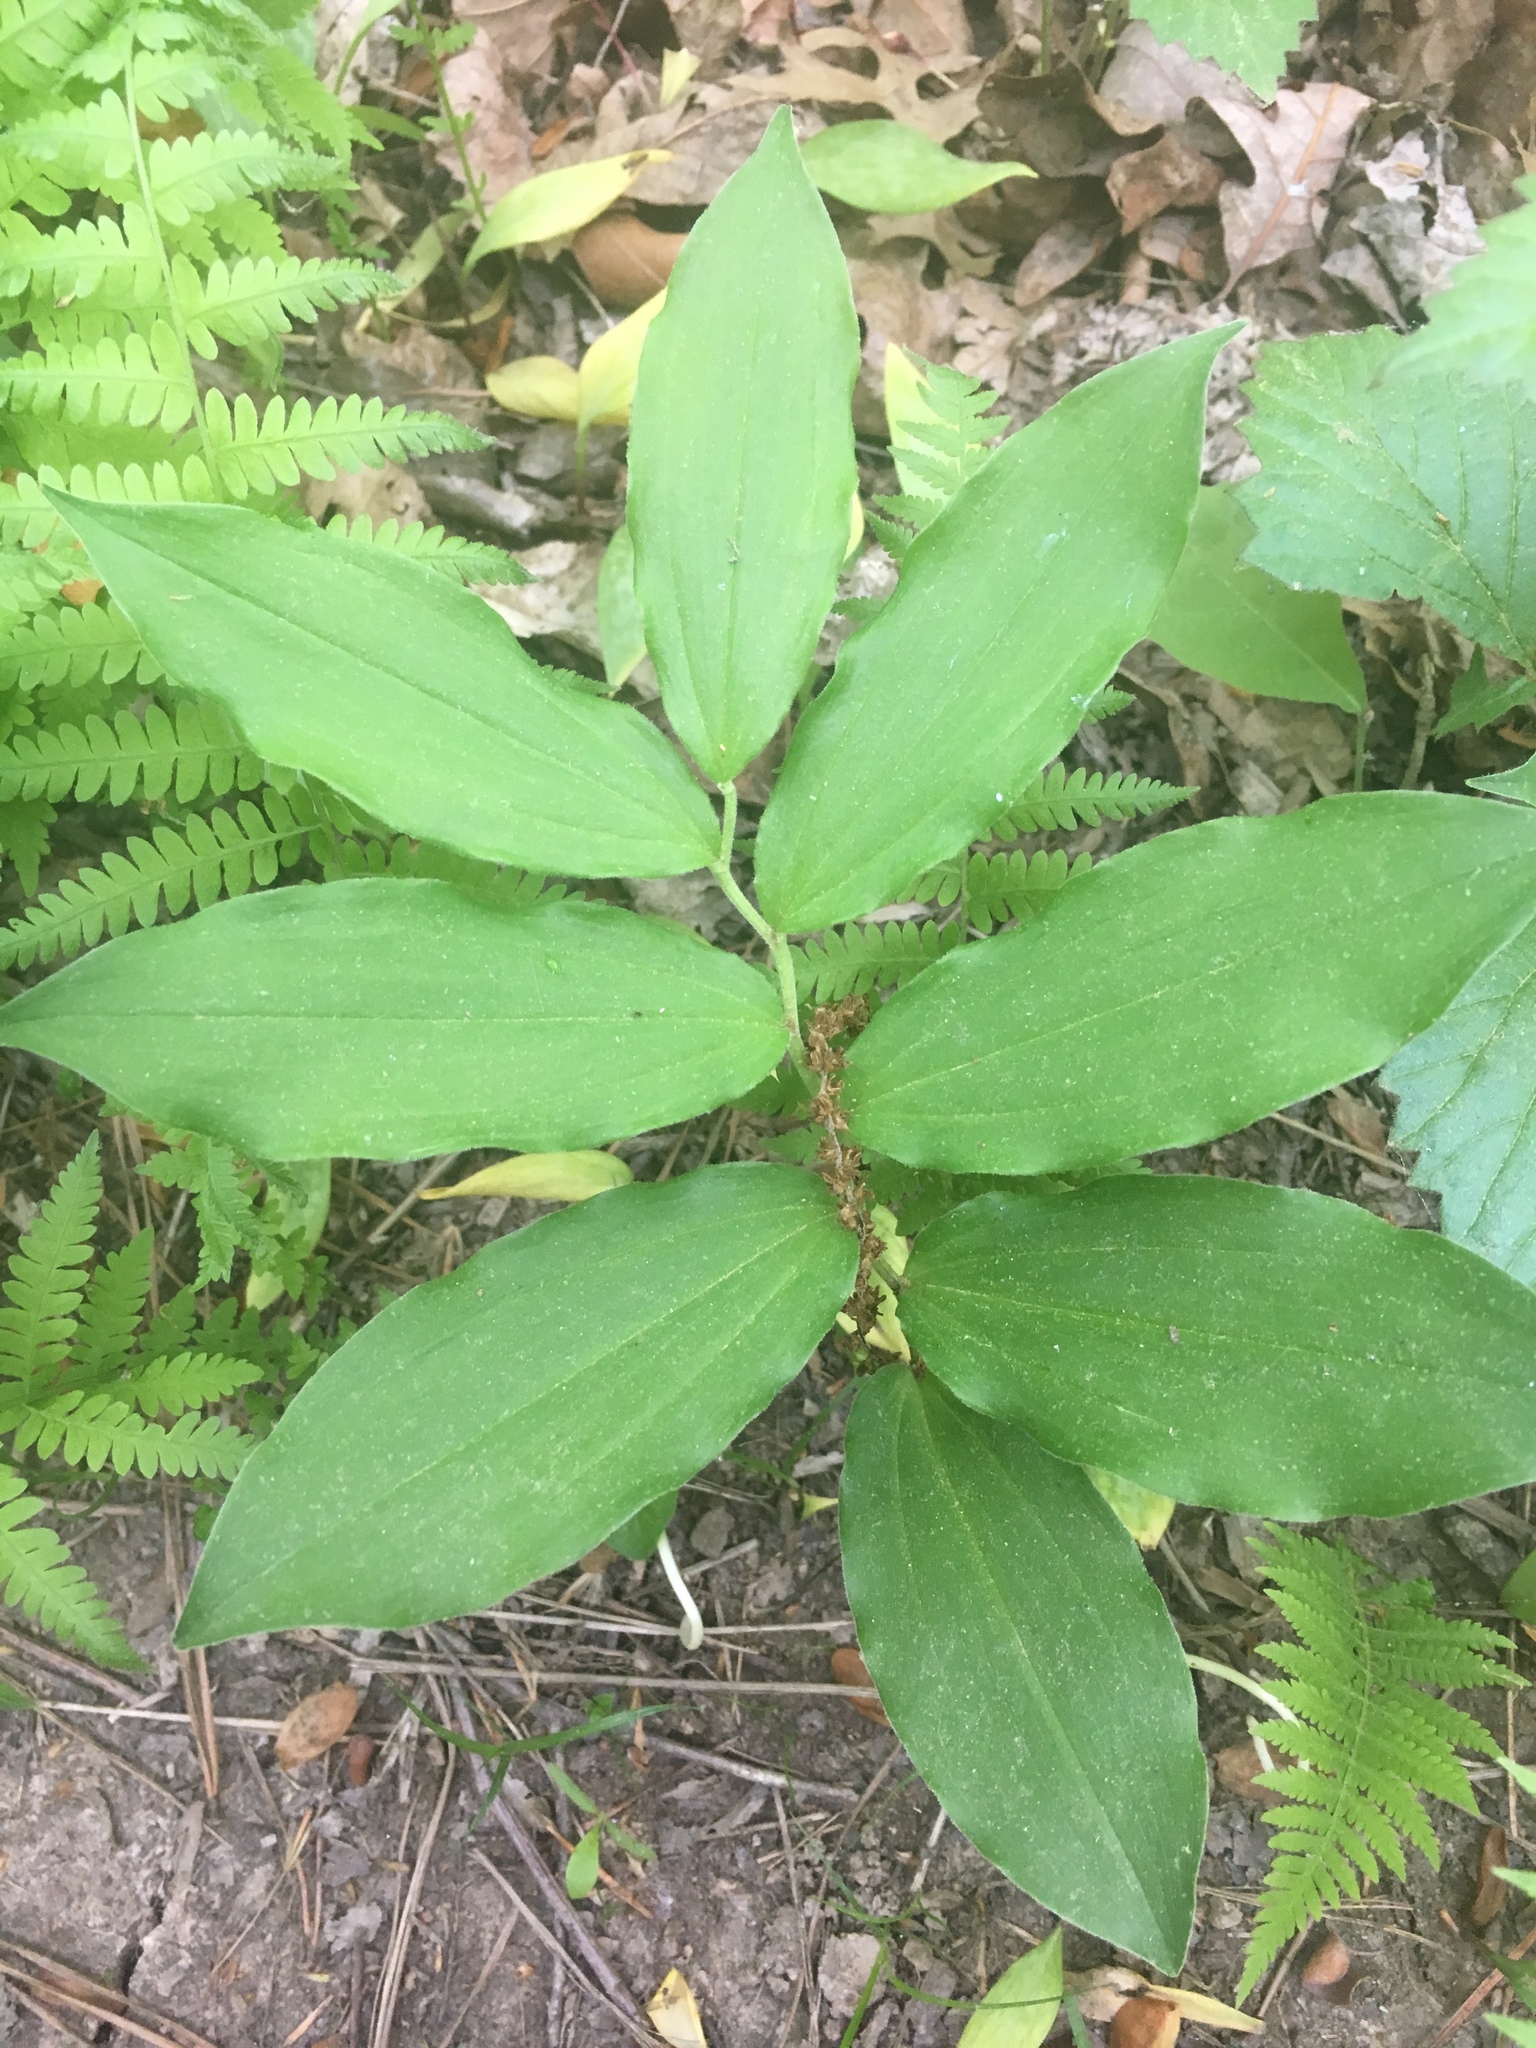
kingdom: Plantae
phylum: Tracheophyta
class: Liliopsida
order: Asparagales
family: Asparagaceae
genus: Maianthemum
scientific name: Maianthemum racemosum
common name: False spikenard
